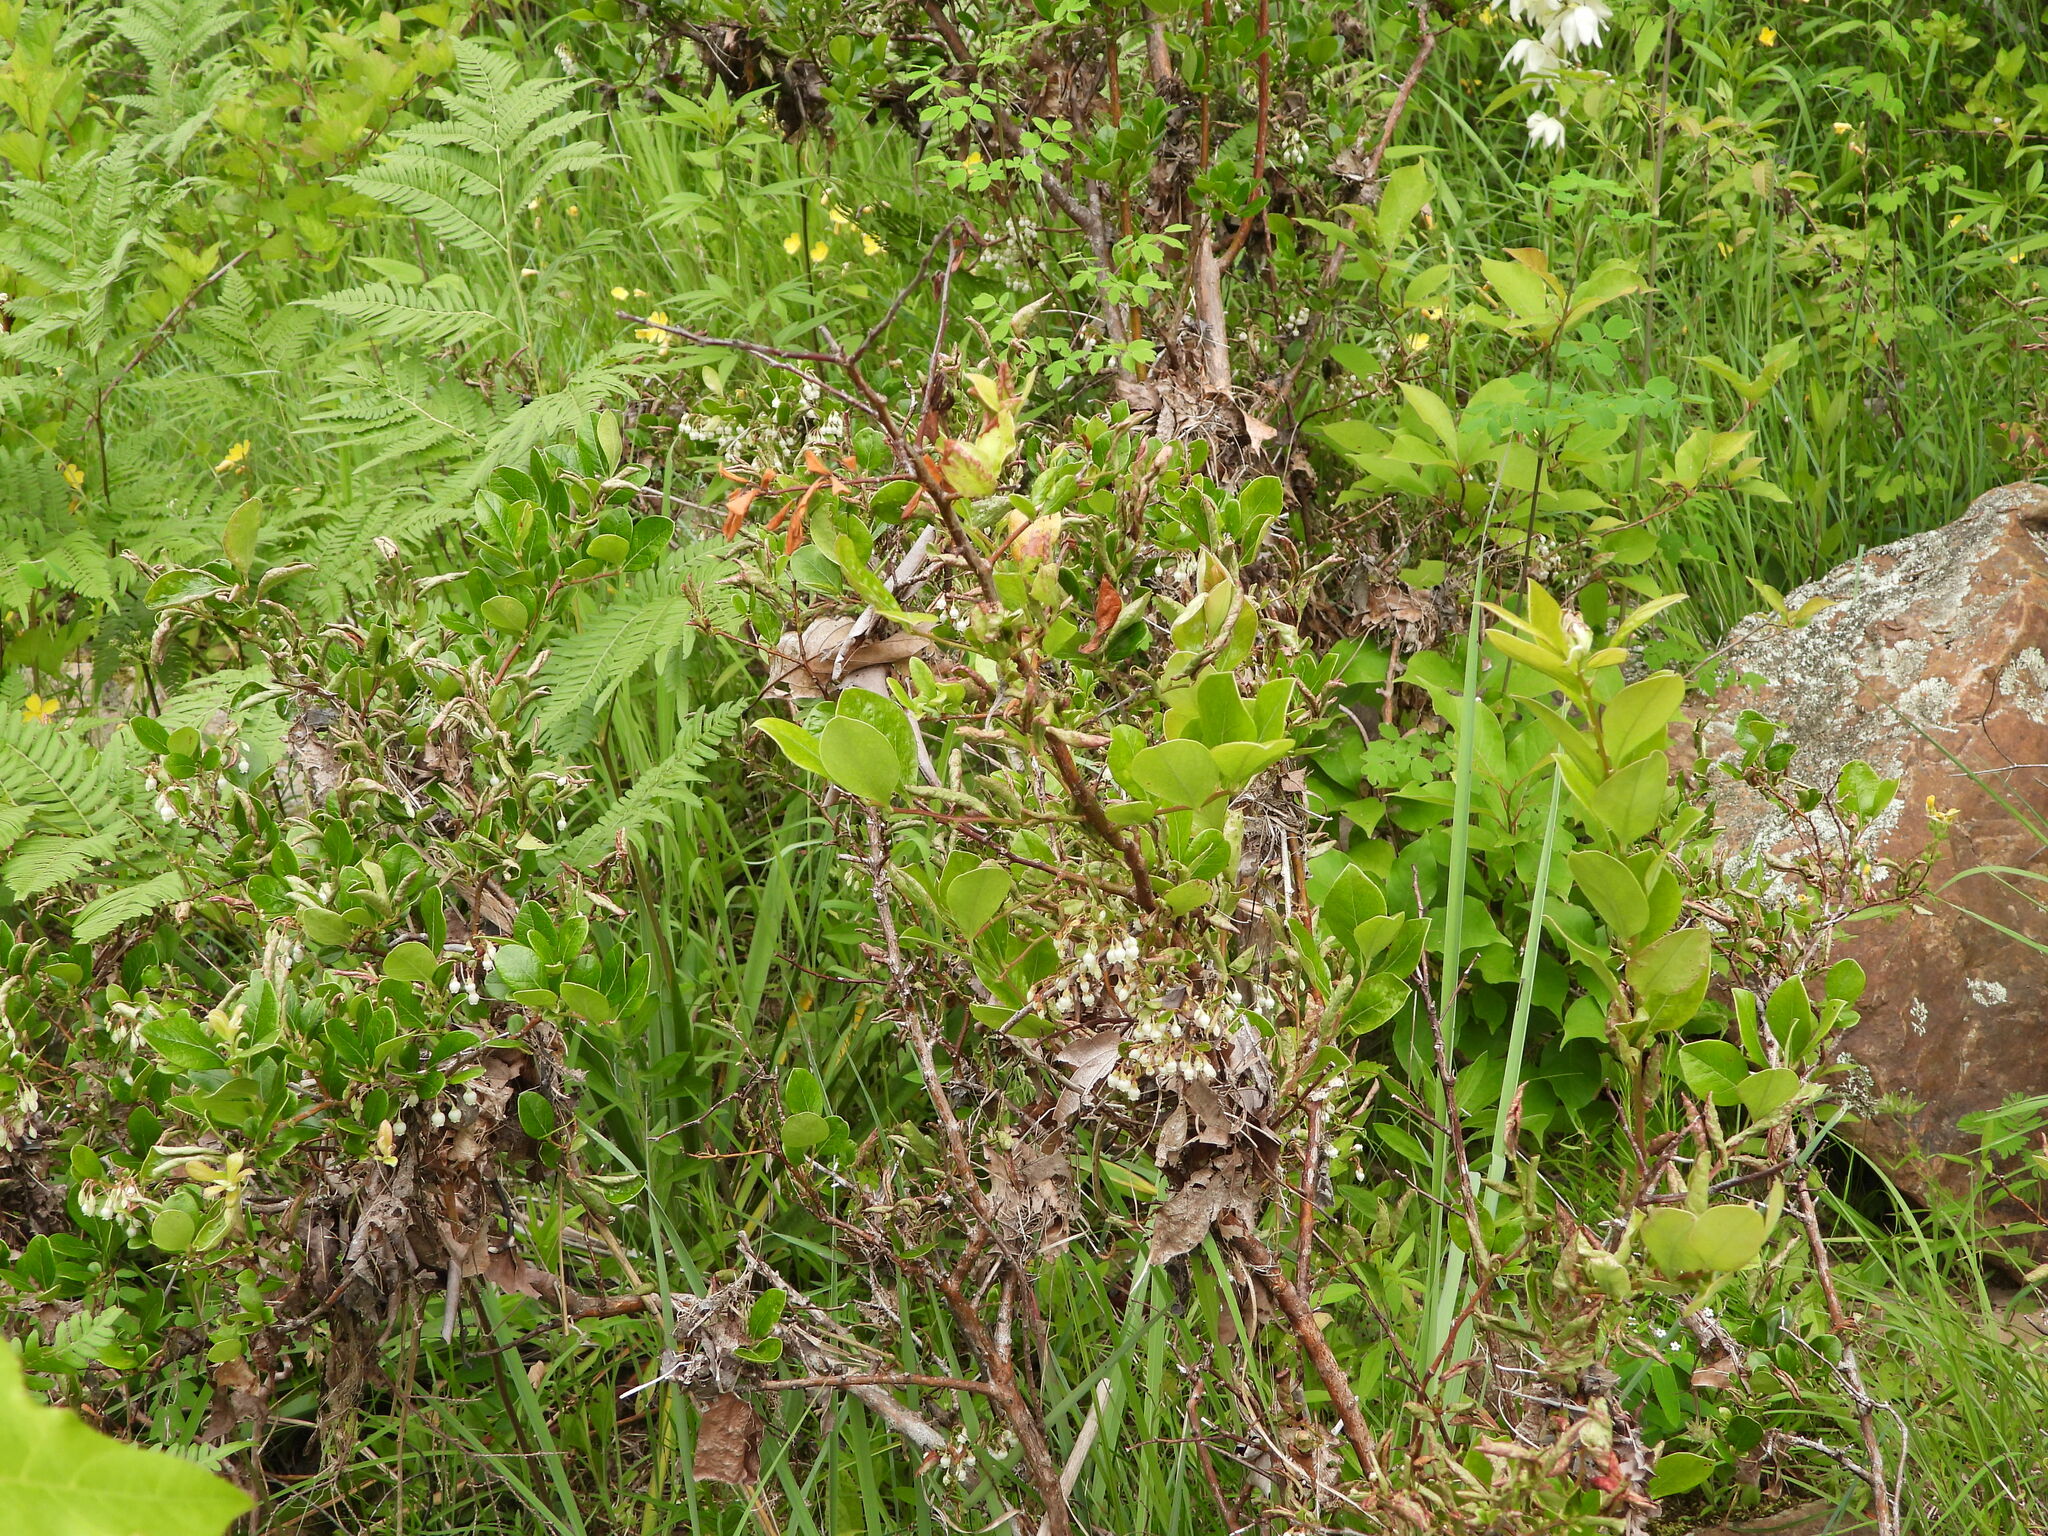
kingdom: Plantae
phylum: Tracheophyta
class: Magnoliopsida
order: Ericales
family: Ericaceae
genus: Vaccinium
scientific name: Vaccinium arboreum
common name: Farkleberry
